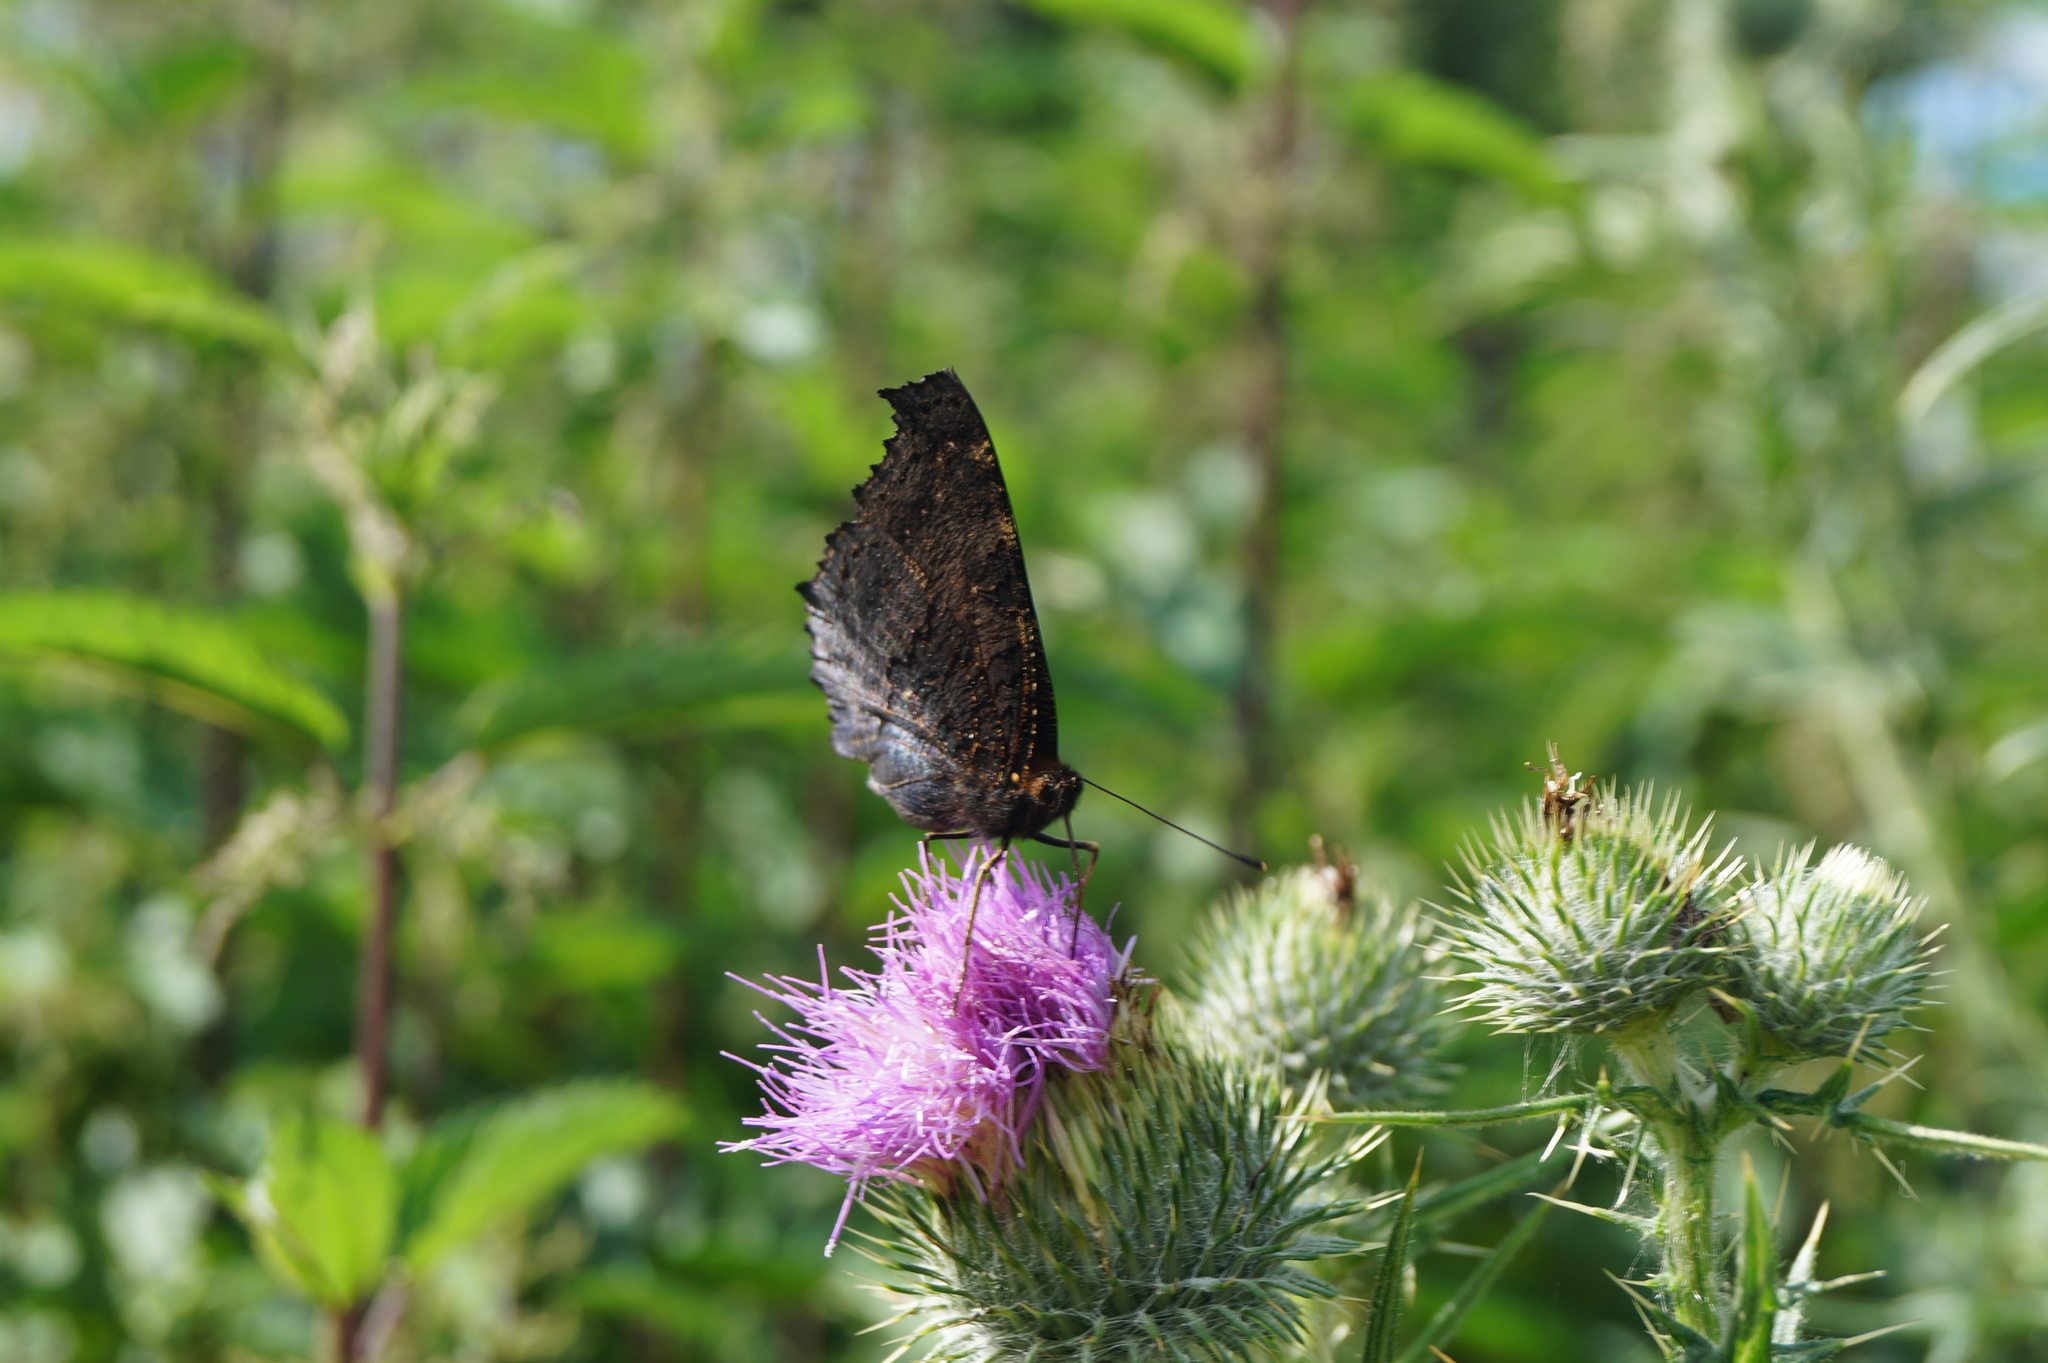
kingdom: Animalia
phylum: Arthropoda
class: Insecta
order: Lepidoptera
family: Nymphalidae
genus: Aglais
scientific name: Aglais io
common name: Peacock
